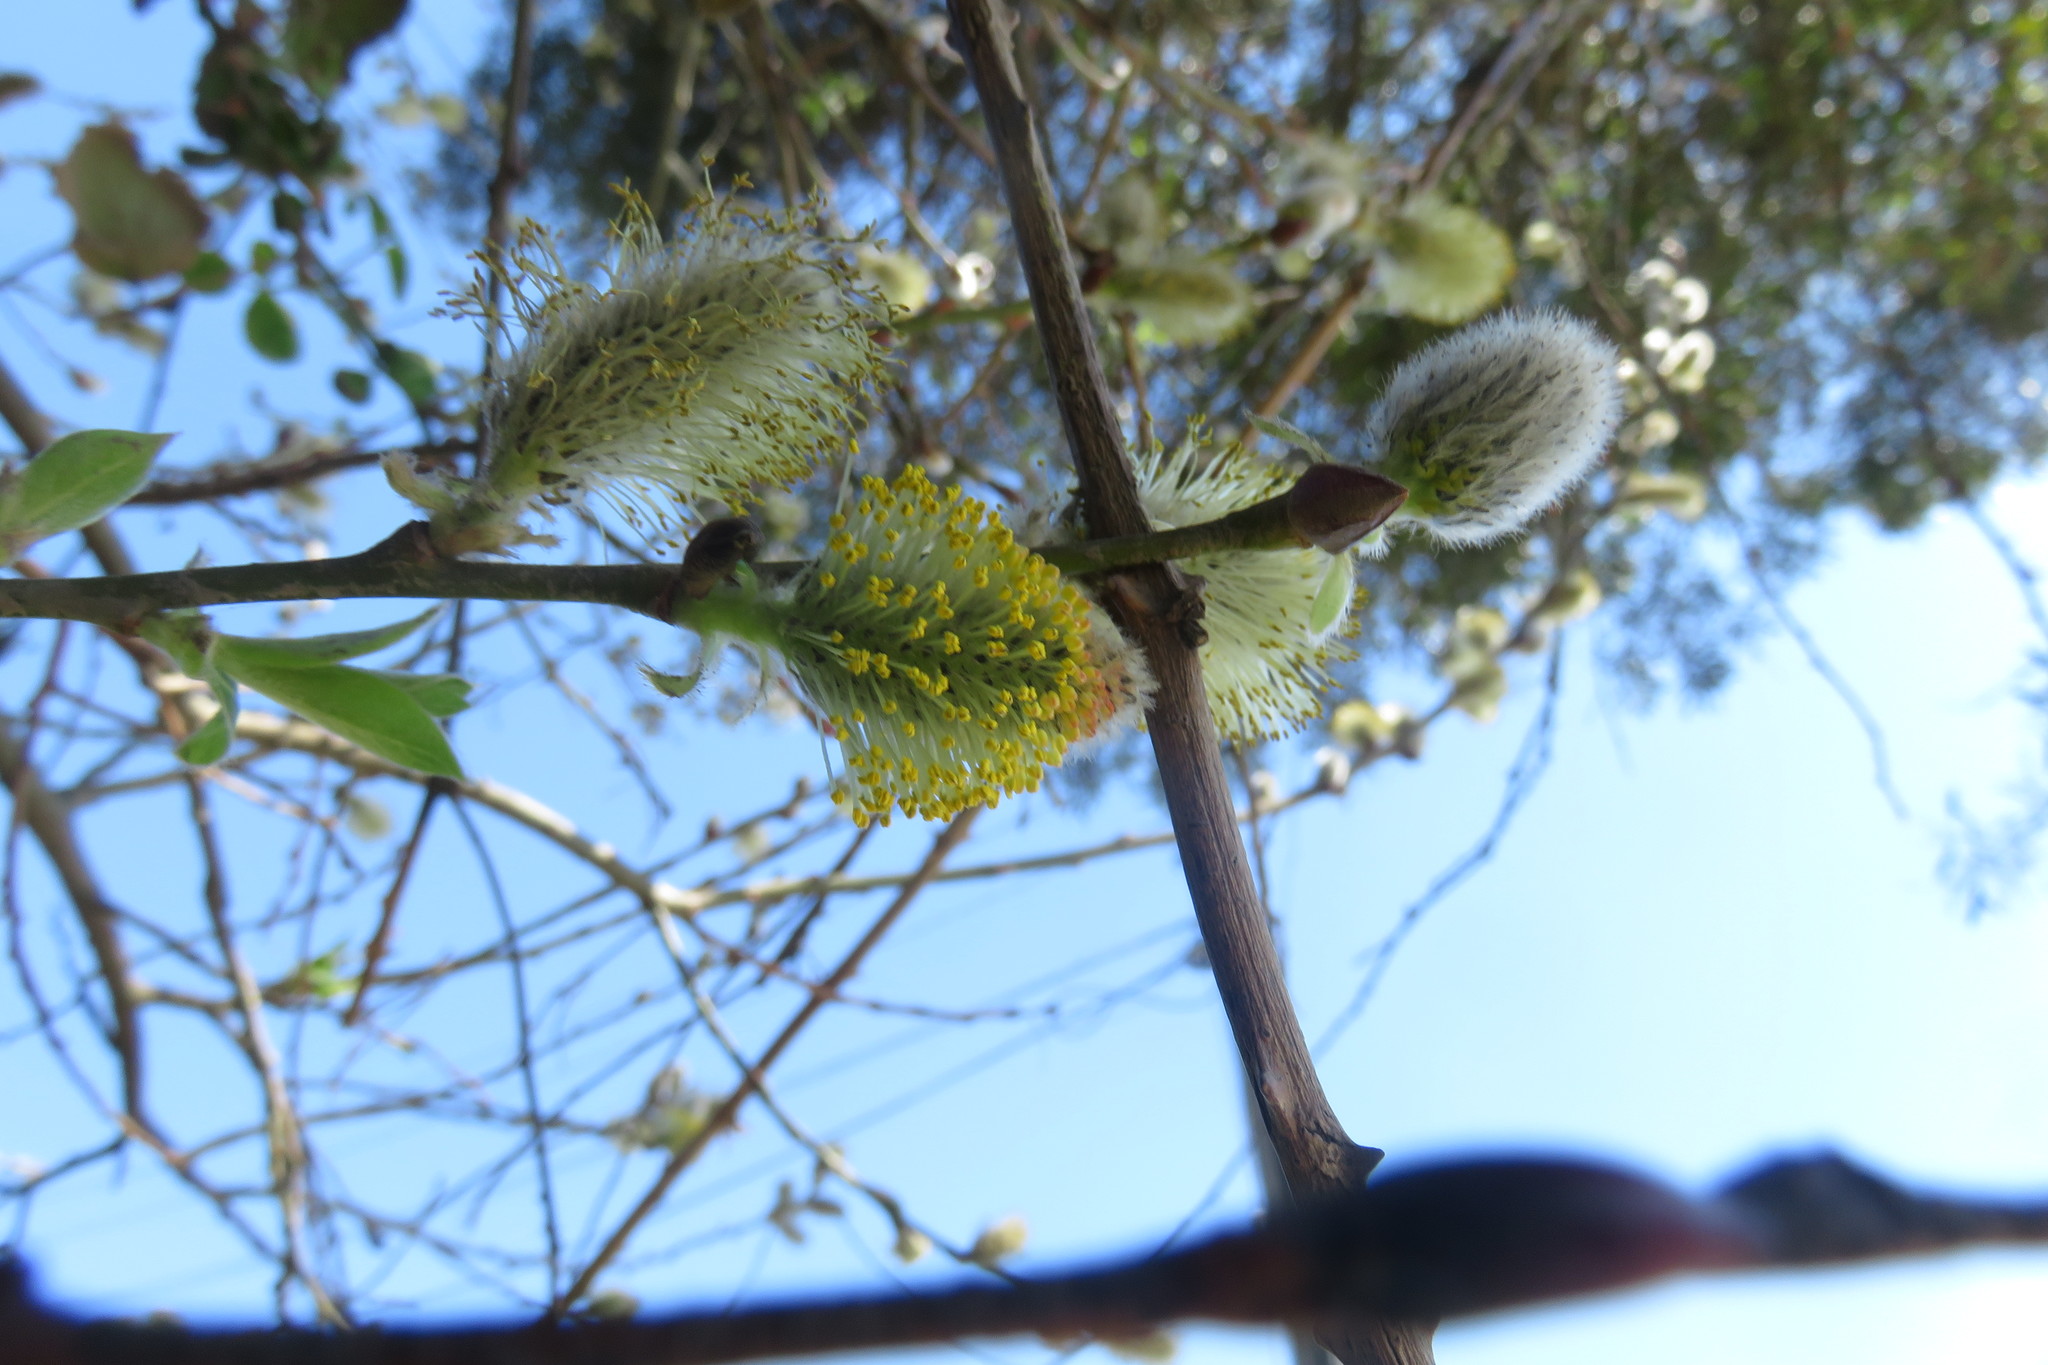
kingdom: Plantae
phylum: Tracheophyta
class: Magnoliopsida
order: Malpighiales
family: Salicaceae
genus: Salix
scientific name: Salix caprea
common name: Goat willow
